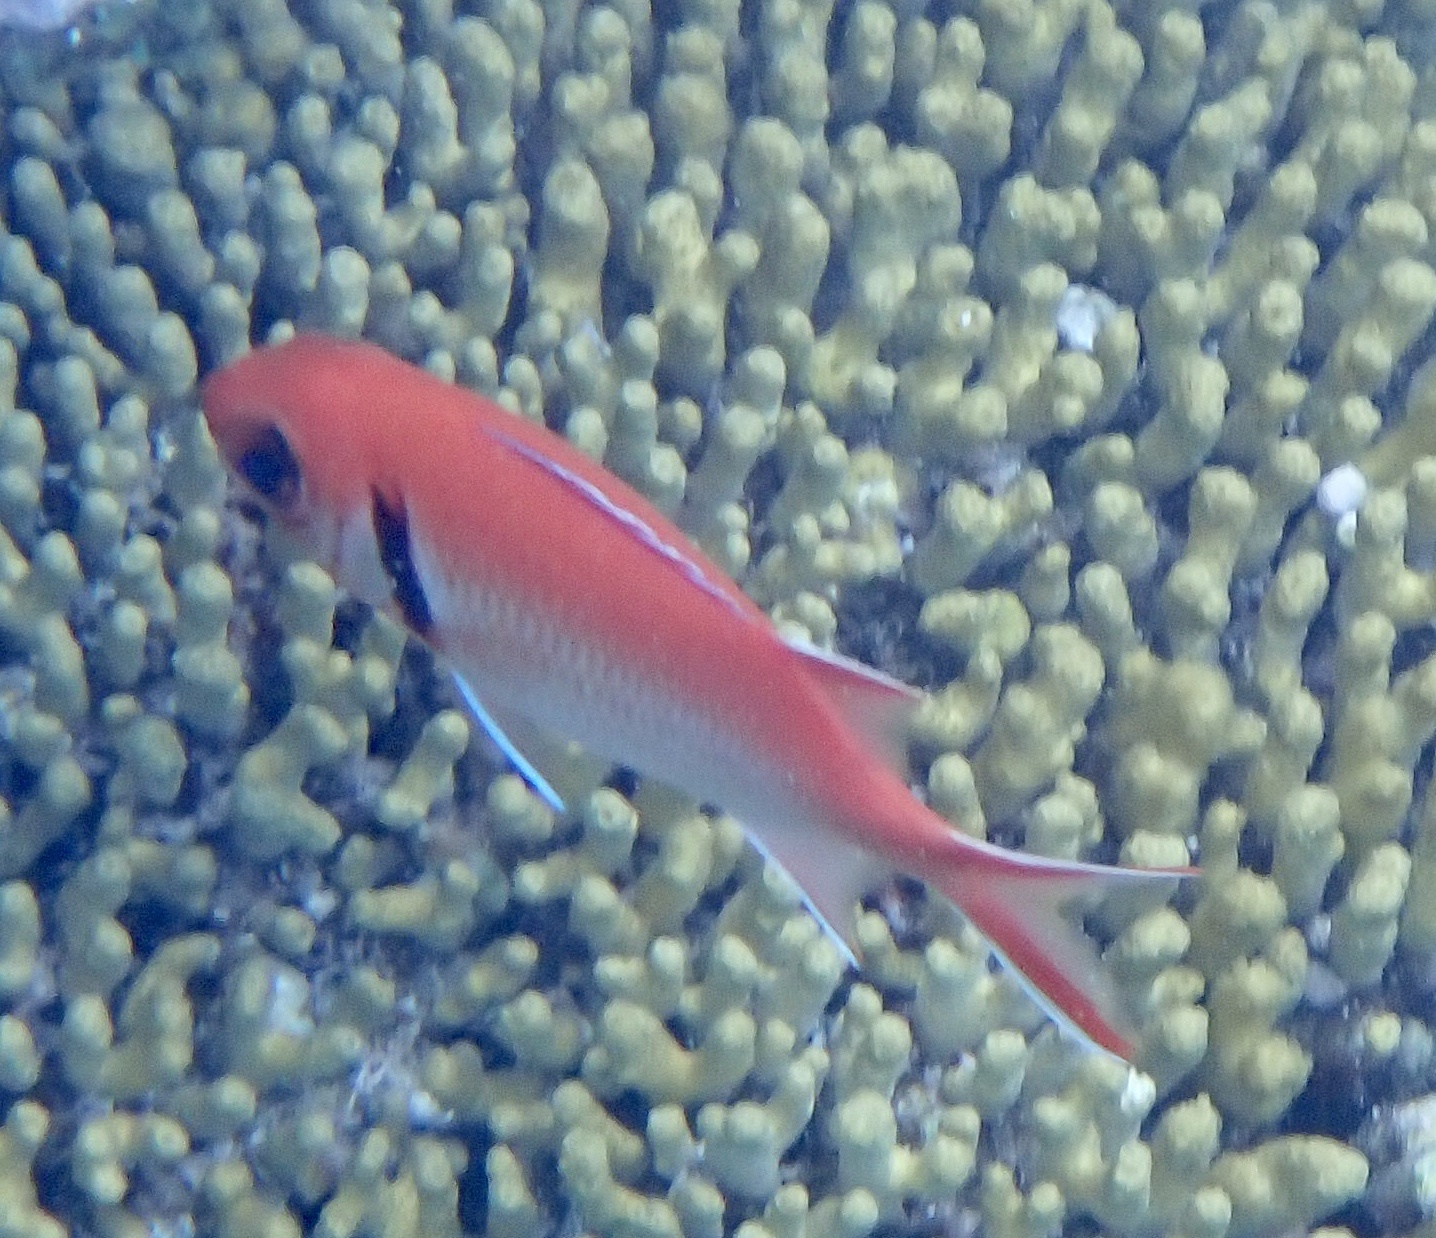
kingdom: Animalia
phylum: Chordata
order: Beryciformes
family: Holocentridae
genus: Myripristis
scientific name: Myripristis jacobus
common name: Blackbar soldierfish
